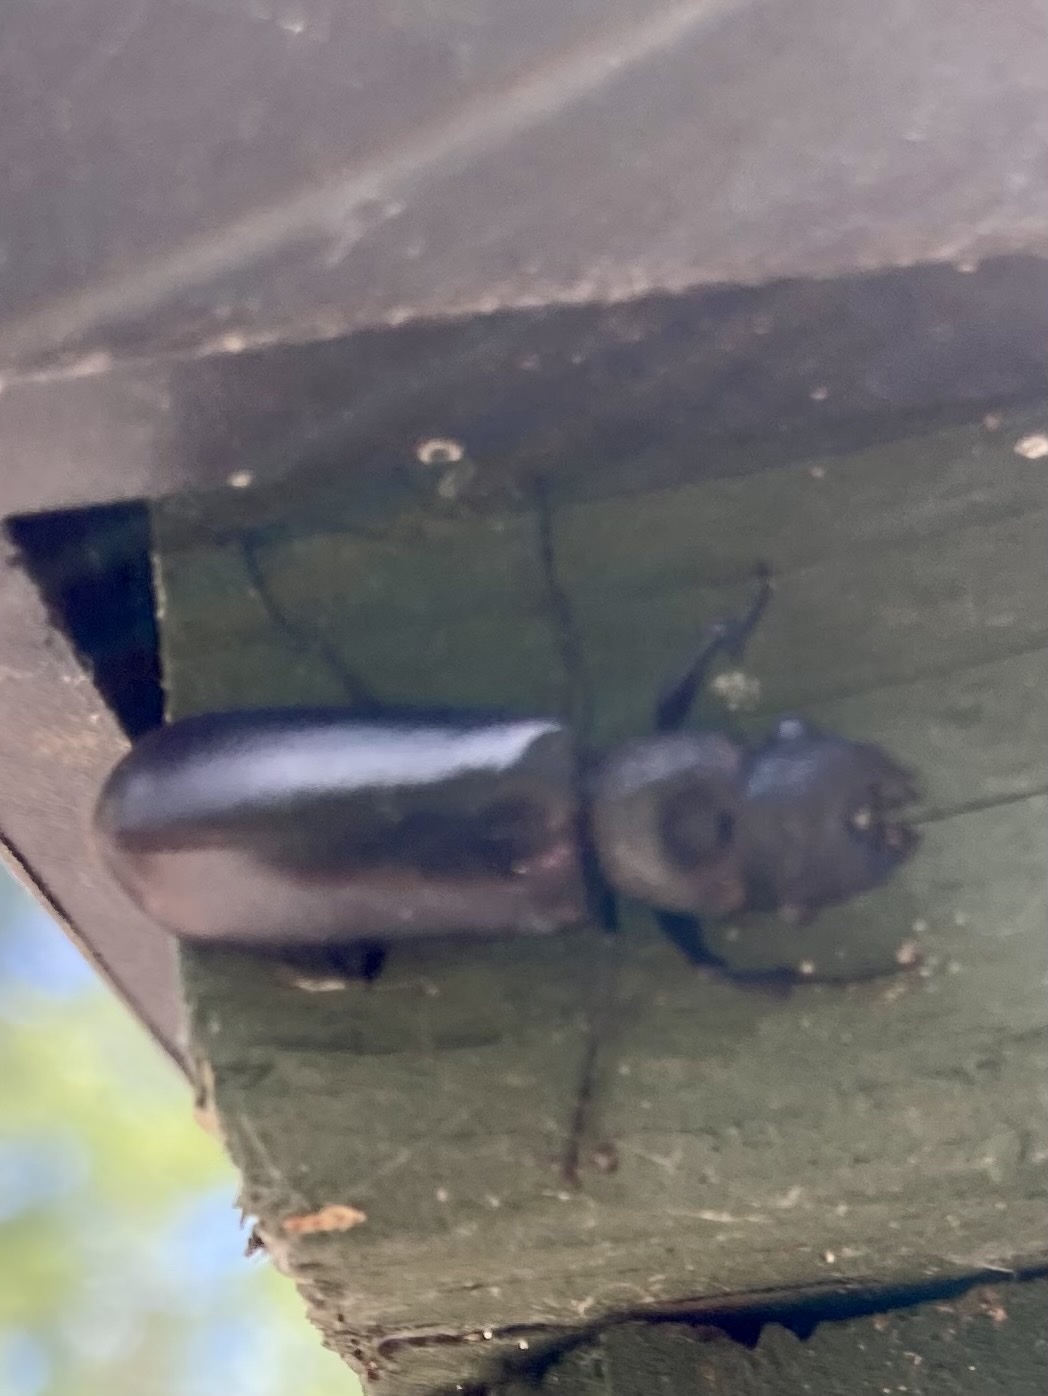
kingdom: Animalia
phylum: Arthropoda
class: Insecta
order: Coleoptera
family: Bostrichidae
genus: Polycaon
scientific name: Polycaon stoutii
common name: Powderpost beetle
